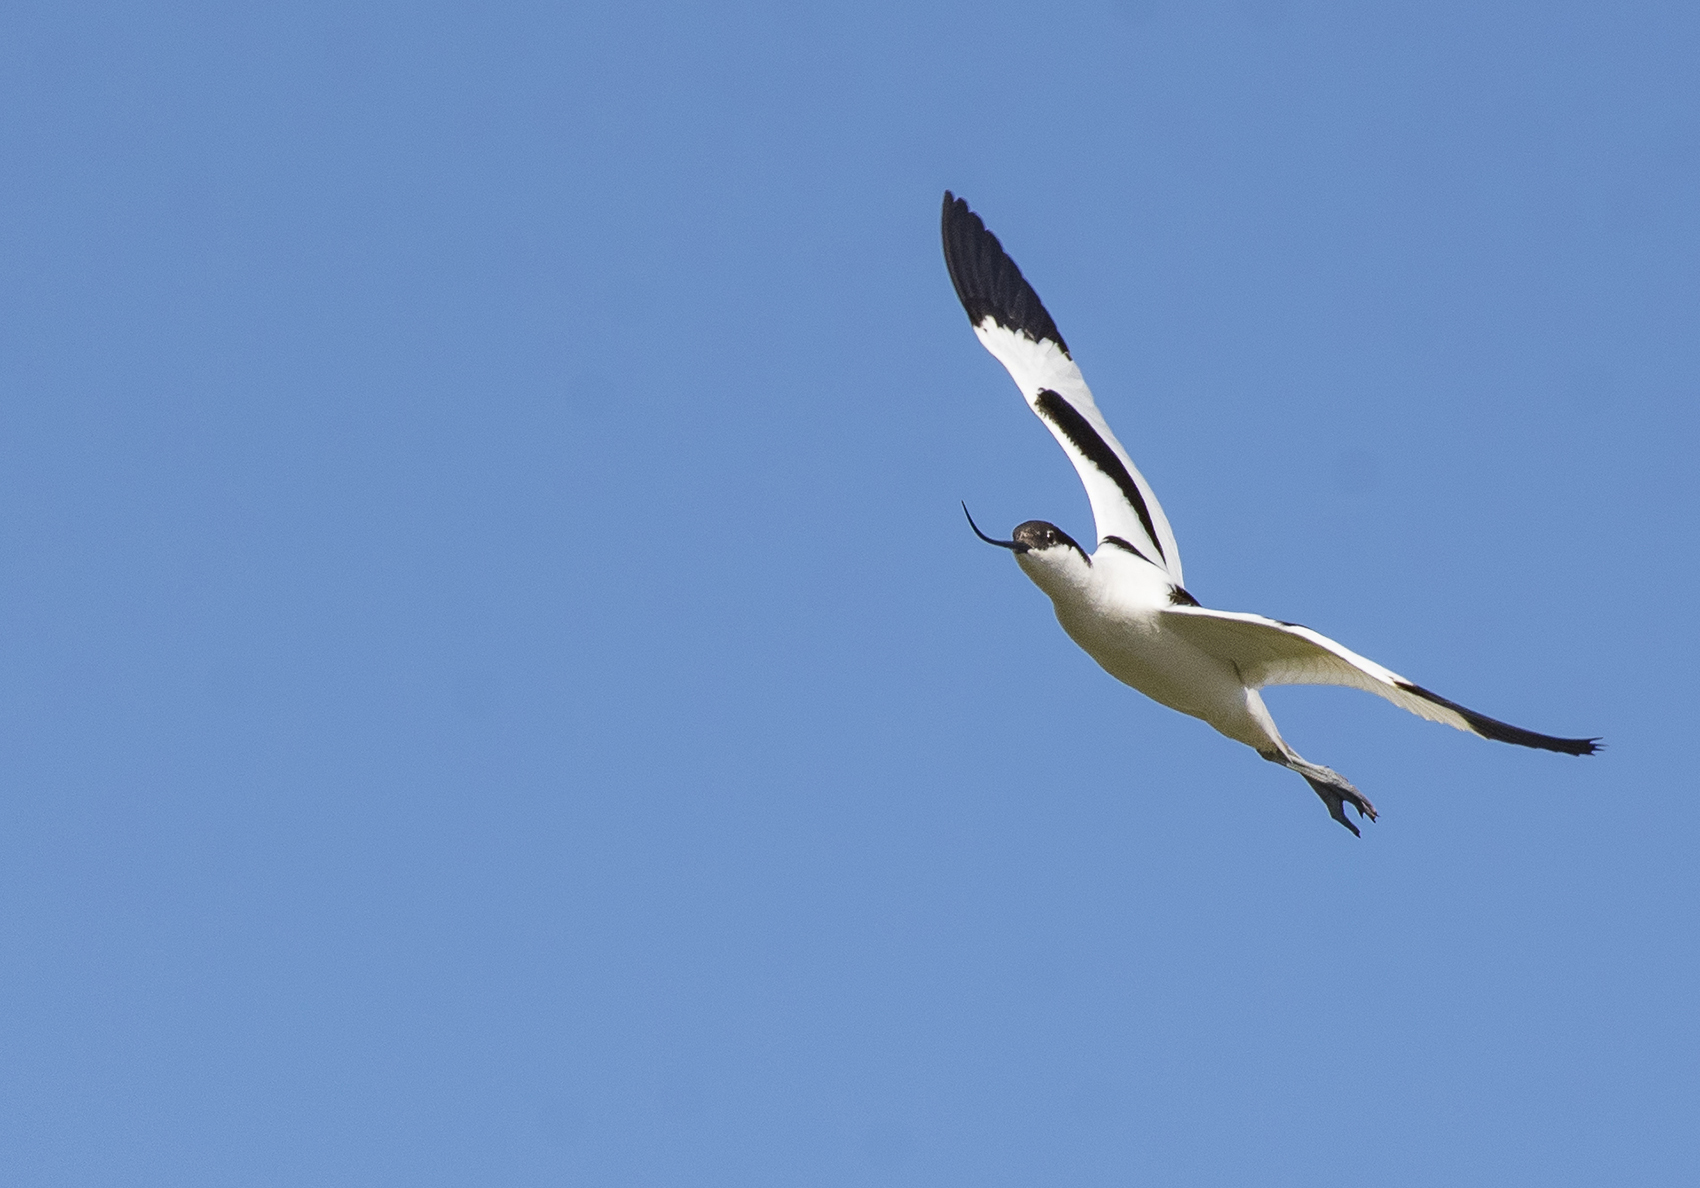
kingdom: Animalia
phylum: Chordata
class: Aves
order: Charadriiformes
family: Recurvirostridae
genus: Recurvirostra
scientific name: Recurvirostra avosetta
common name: Pied avocet
